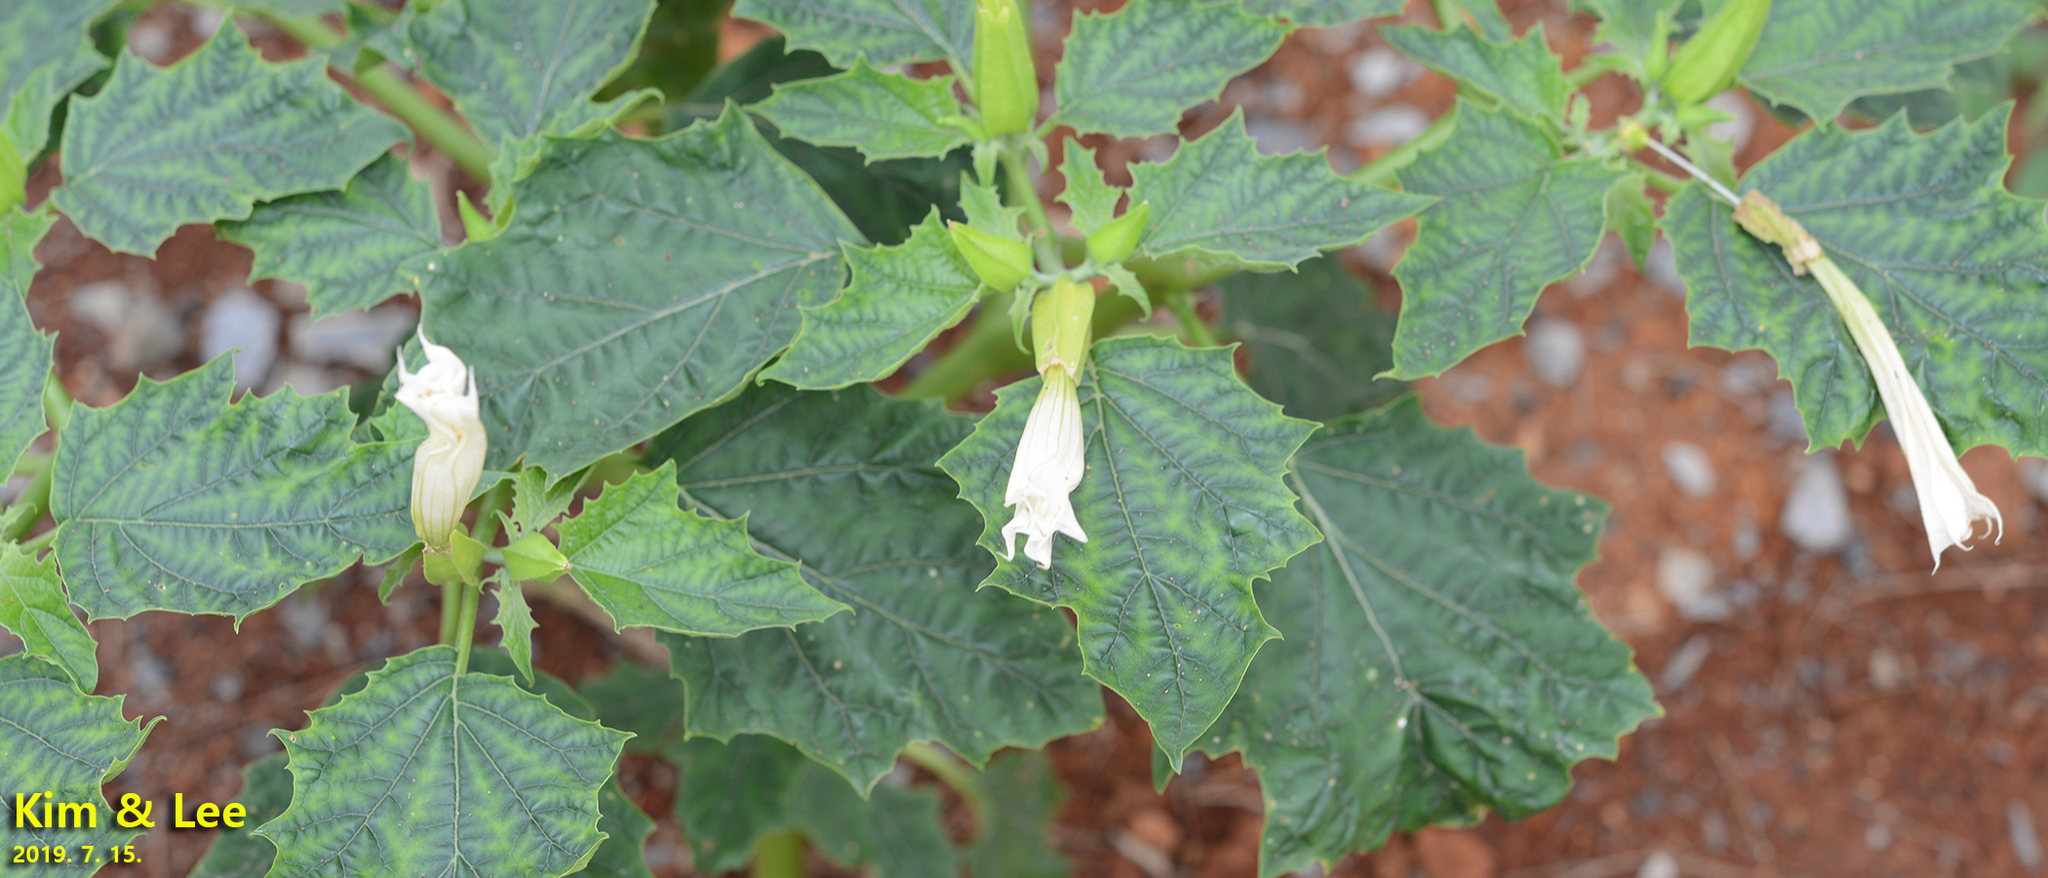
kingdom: Plantae
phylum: Tracheophyta
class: Magnoliopsida
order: Solanales
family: Solanaceae
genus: Datura
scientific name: Datura stramonium
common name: Thorn-apple
